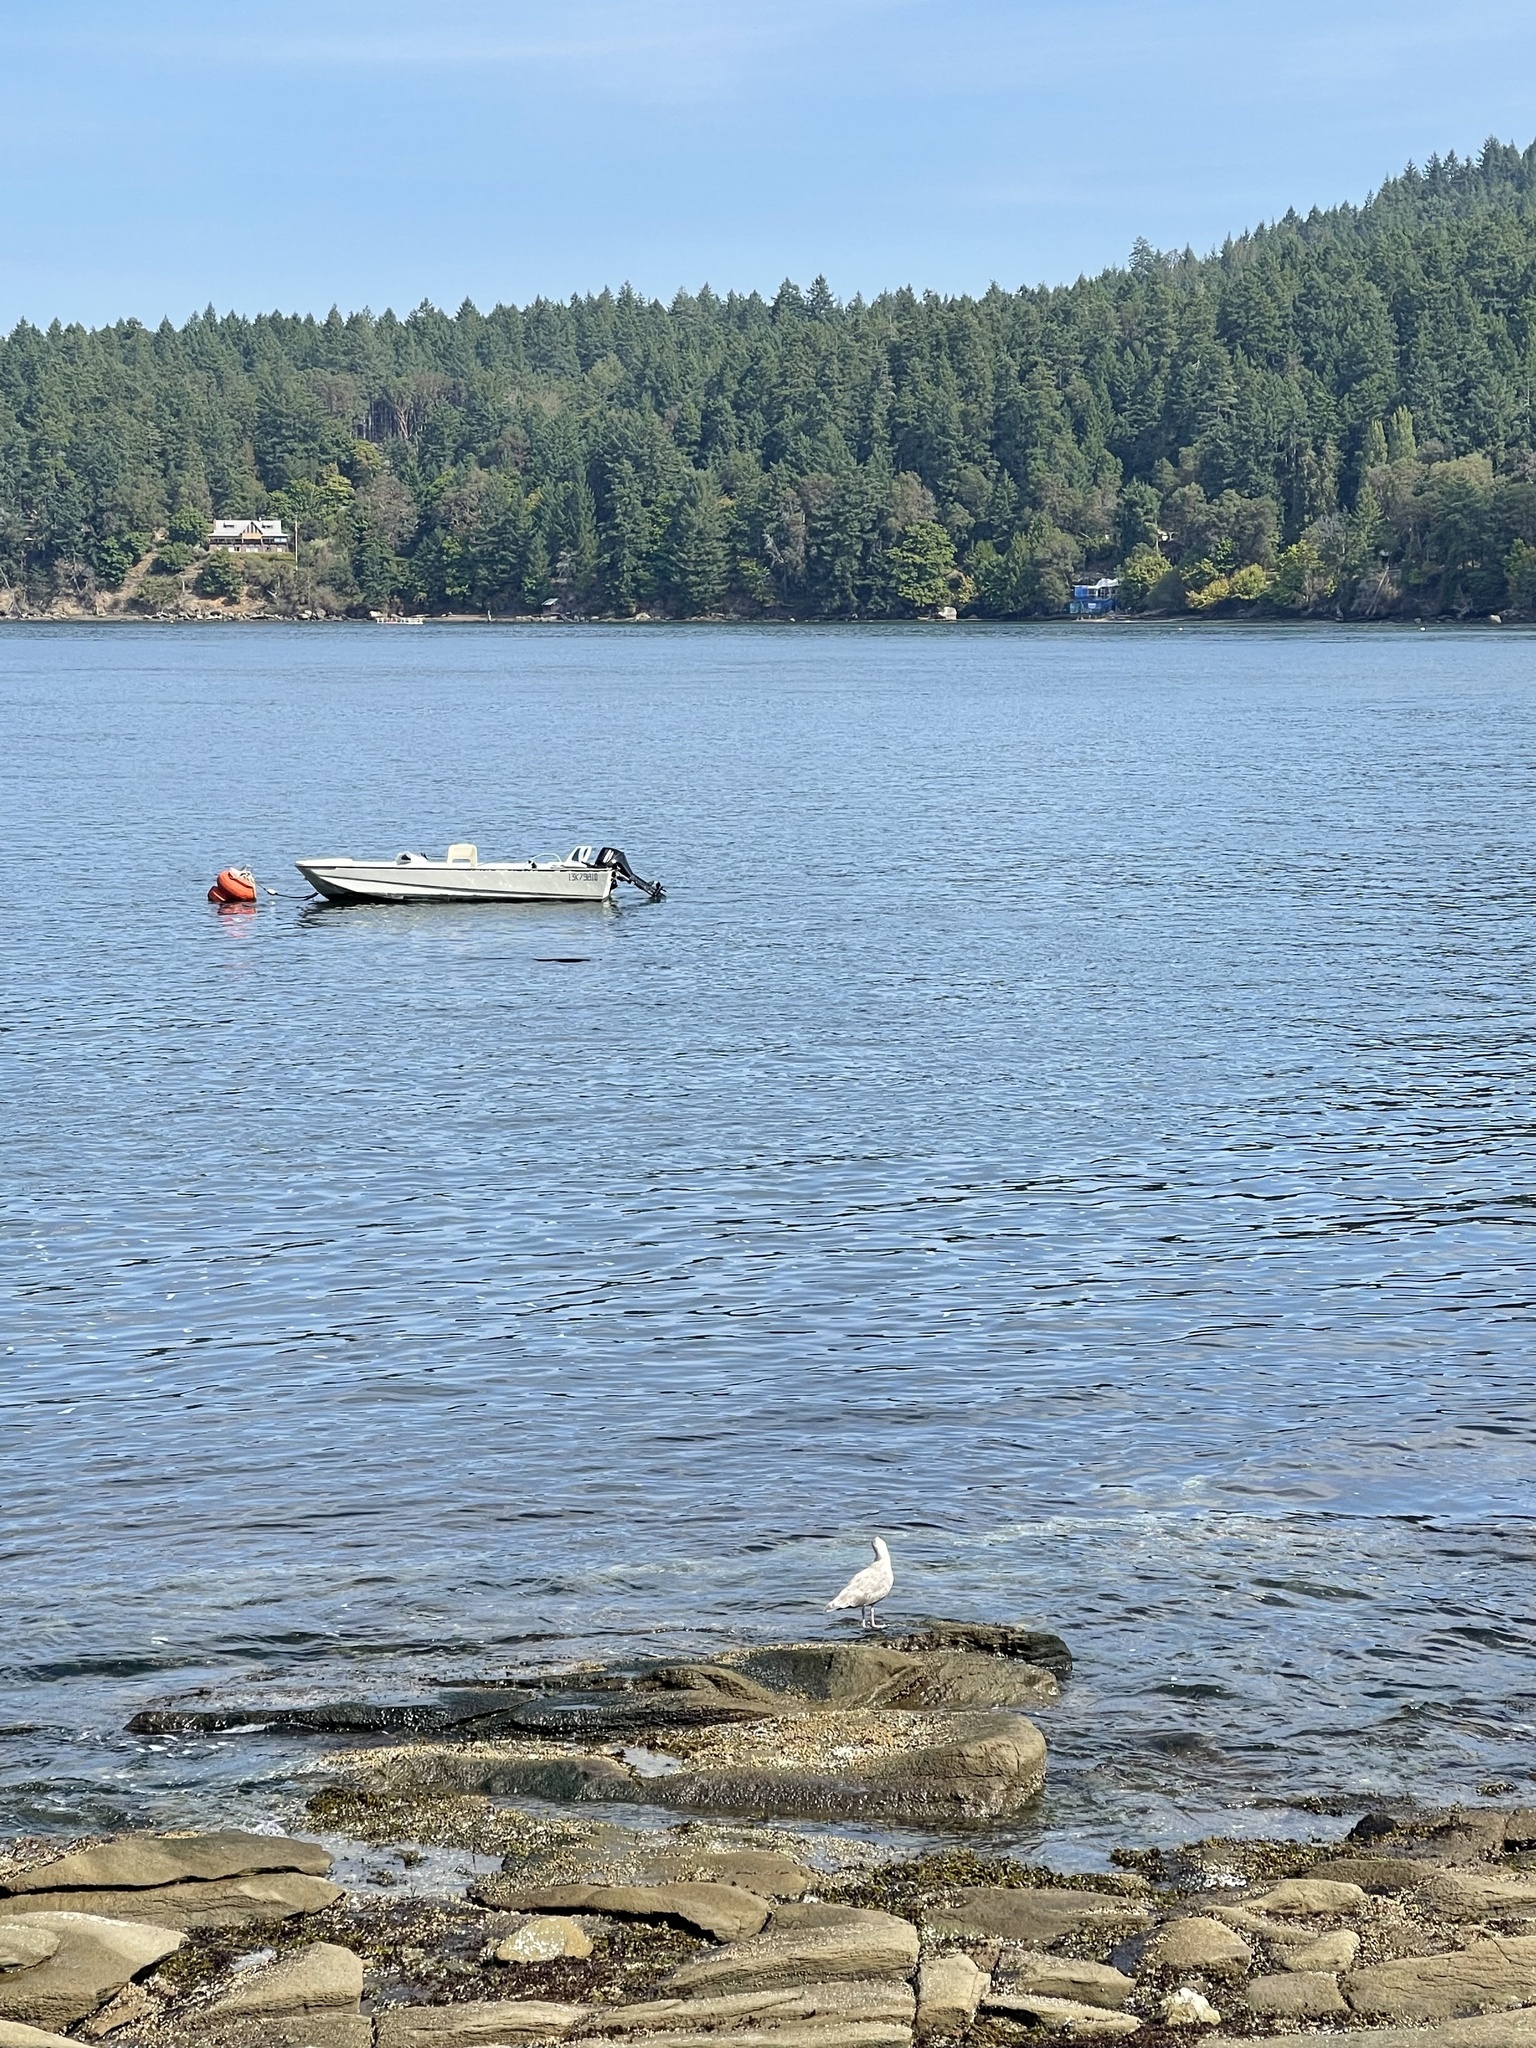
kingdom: Animalia
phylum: Chordata
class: Aves
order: Charadriiformes
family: Laridae
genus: Larus
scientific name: Larus glaucescens
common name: Glaucous-winged gull
